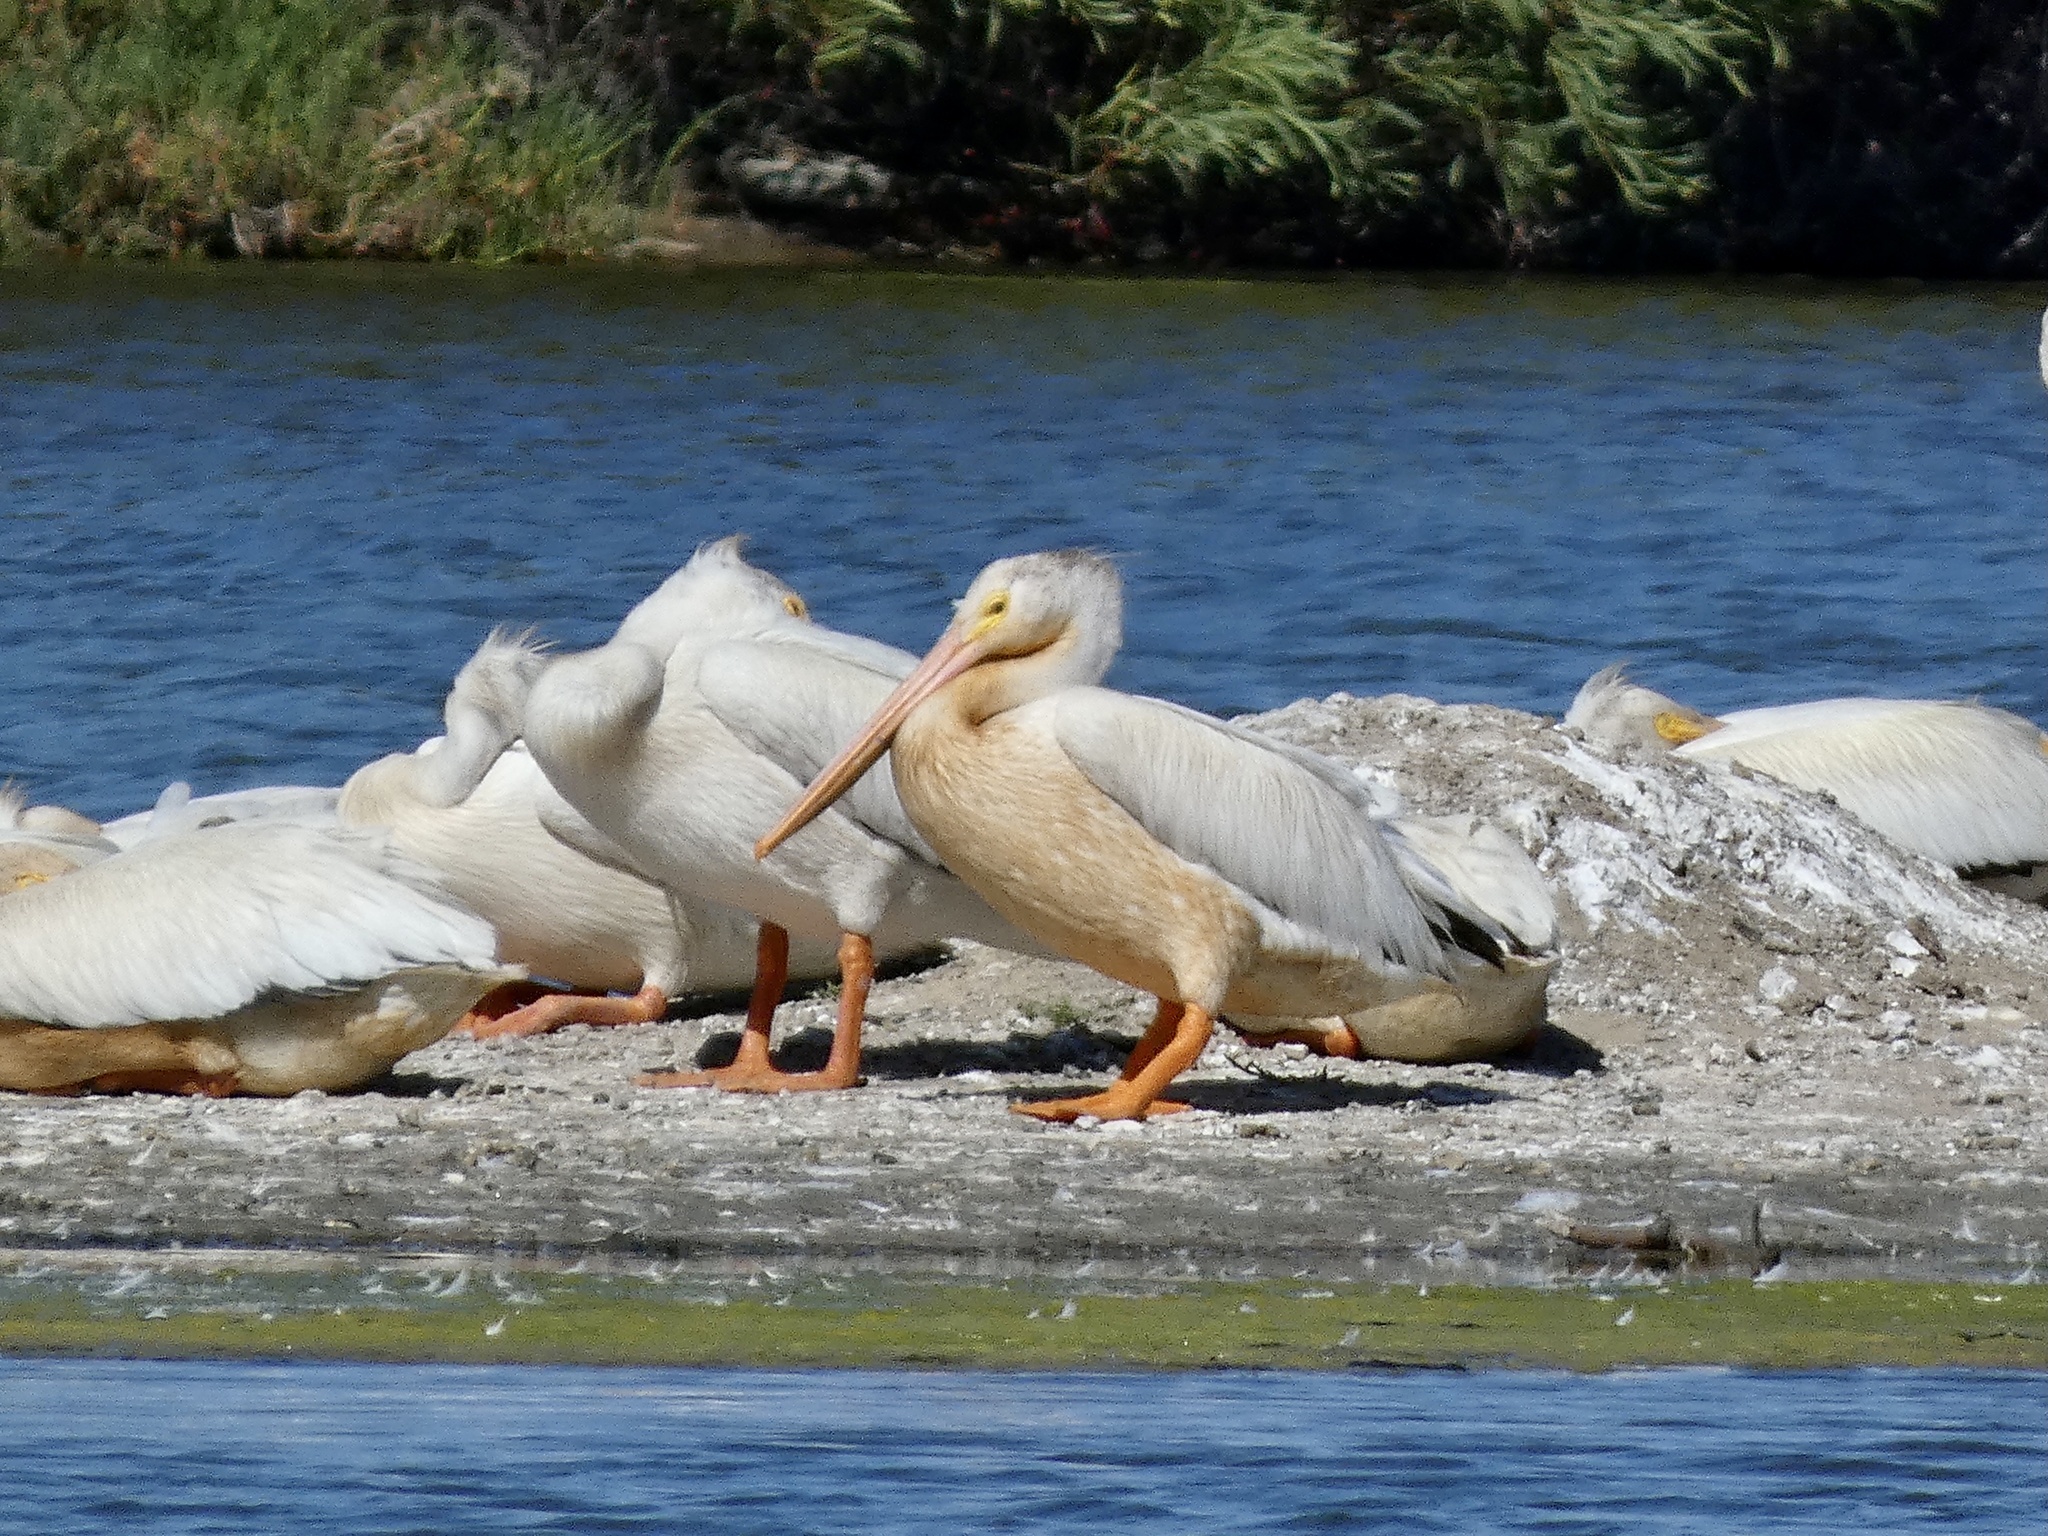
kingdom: Animalia
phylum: Chordata
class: Aves
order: Pelecaniformes
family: Pelecanidae
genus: Pelecanus
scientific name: Pelecanus erythrorhynchos
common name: American white pelican
